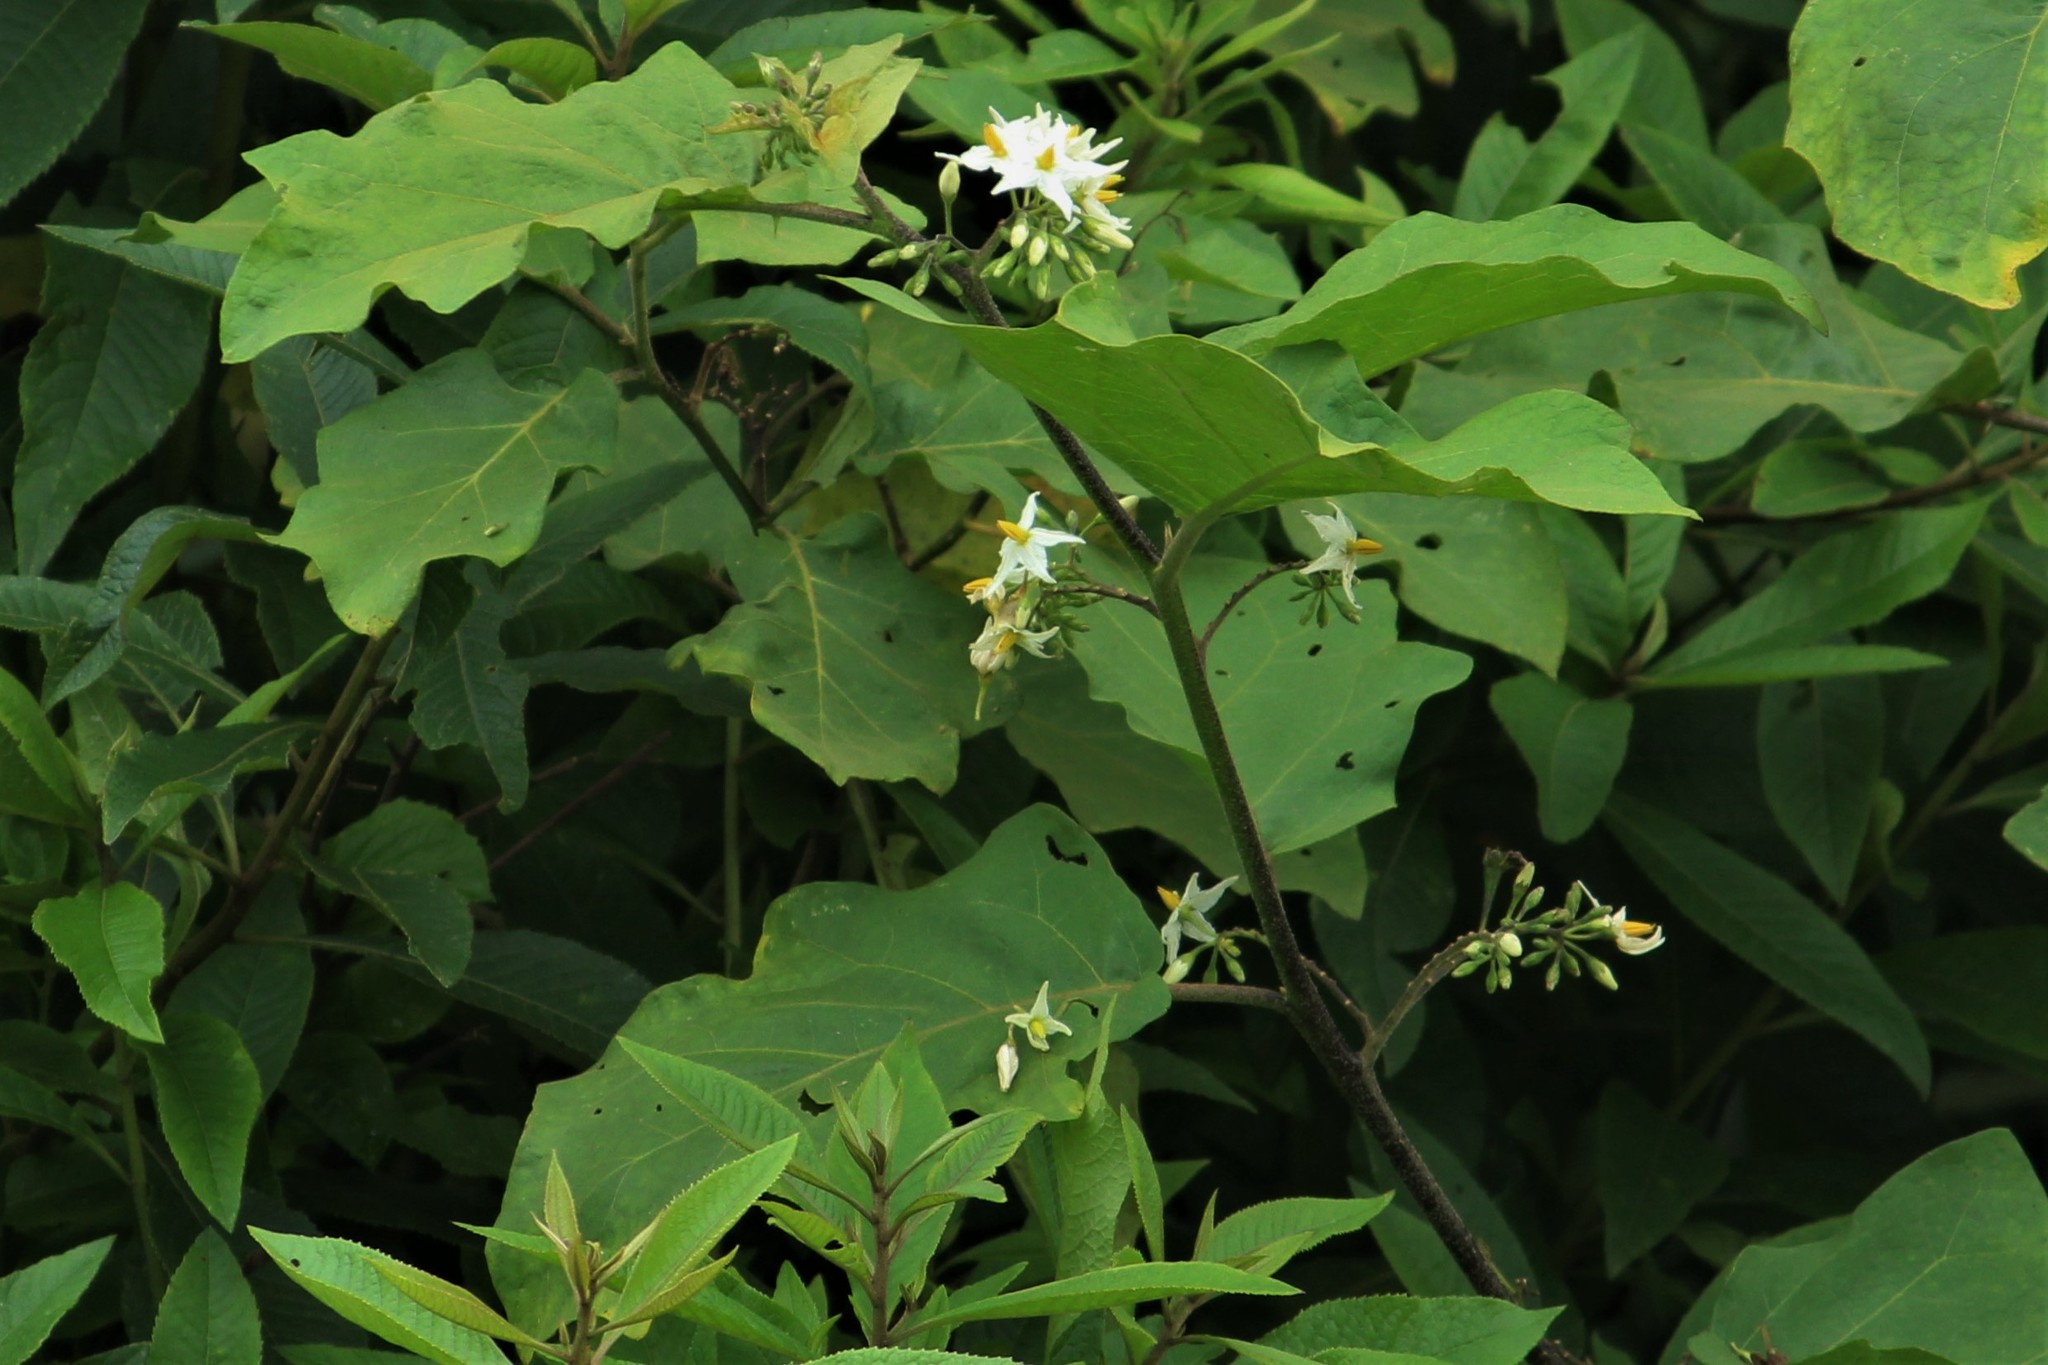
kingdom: Plantae
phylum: Tracheophyta
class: Magnoliopsida
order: Solanales
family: Solanaceae
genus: Solanum
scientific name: Solanum torvum
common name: Turkey berry
